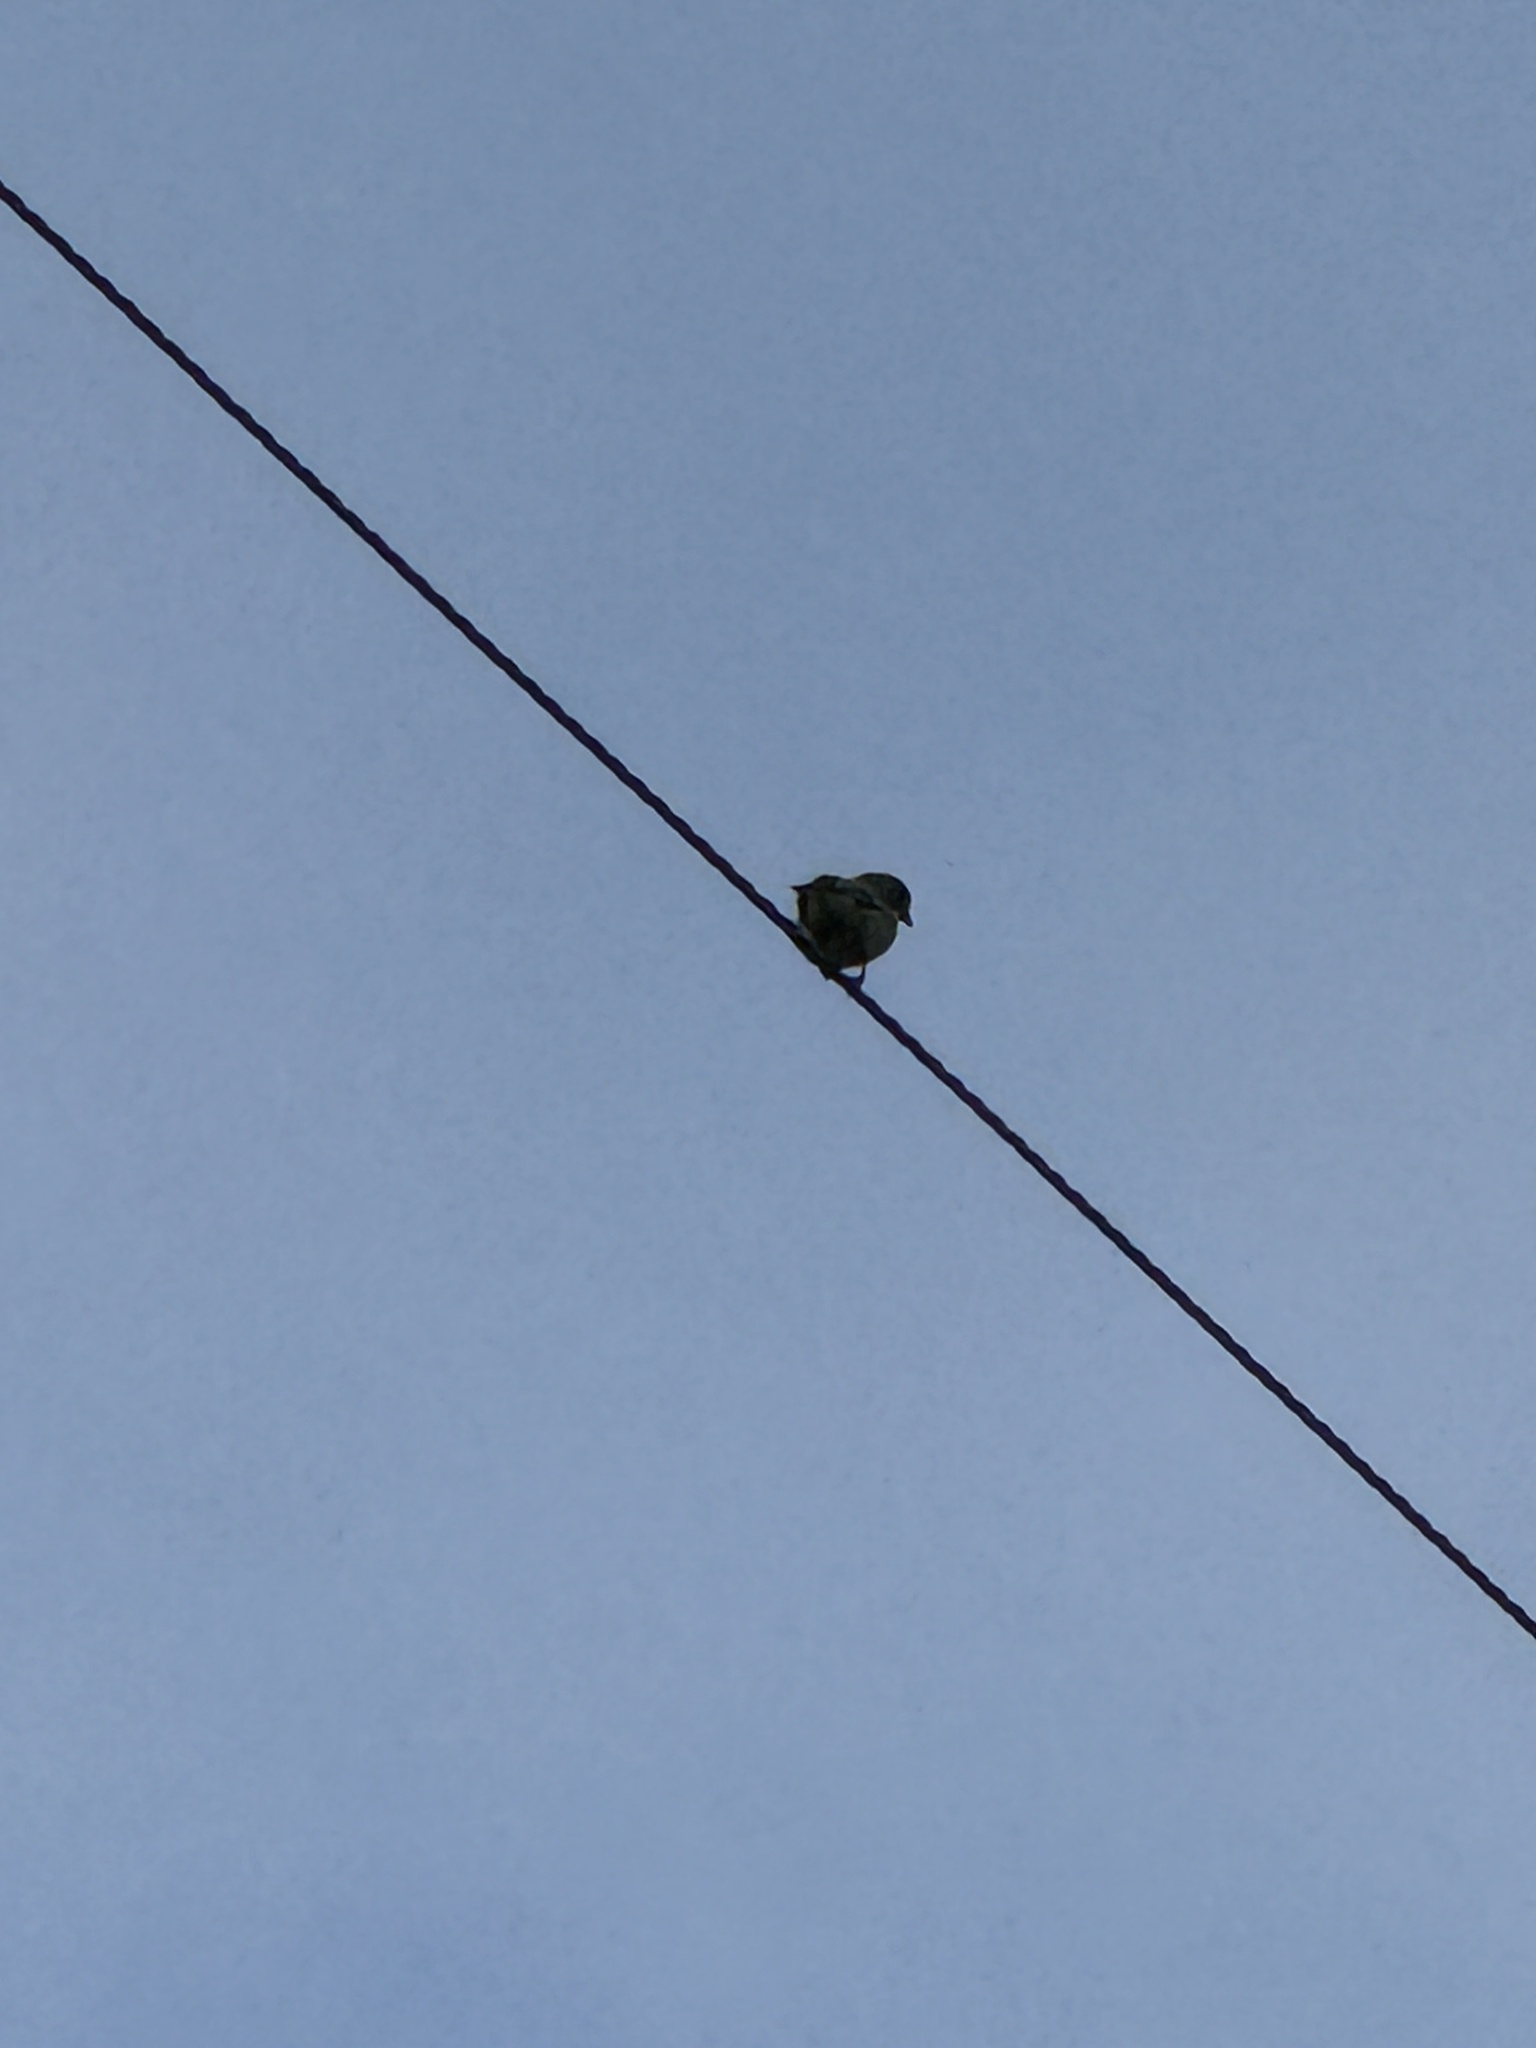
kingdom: Animalia
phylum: Chordata
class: Aves
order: Passeriformes
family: Fringillidae
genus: Spinus
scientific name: Spinus psaltria
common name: Lesser goldfinch
